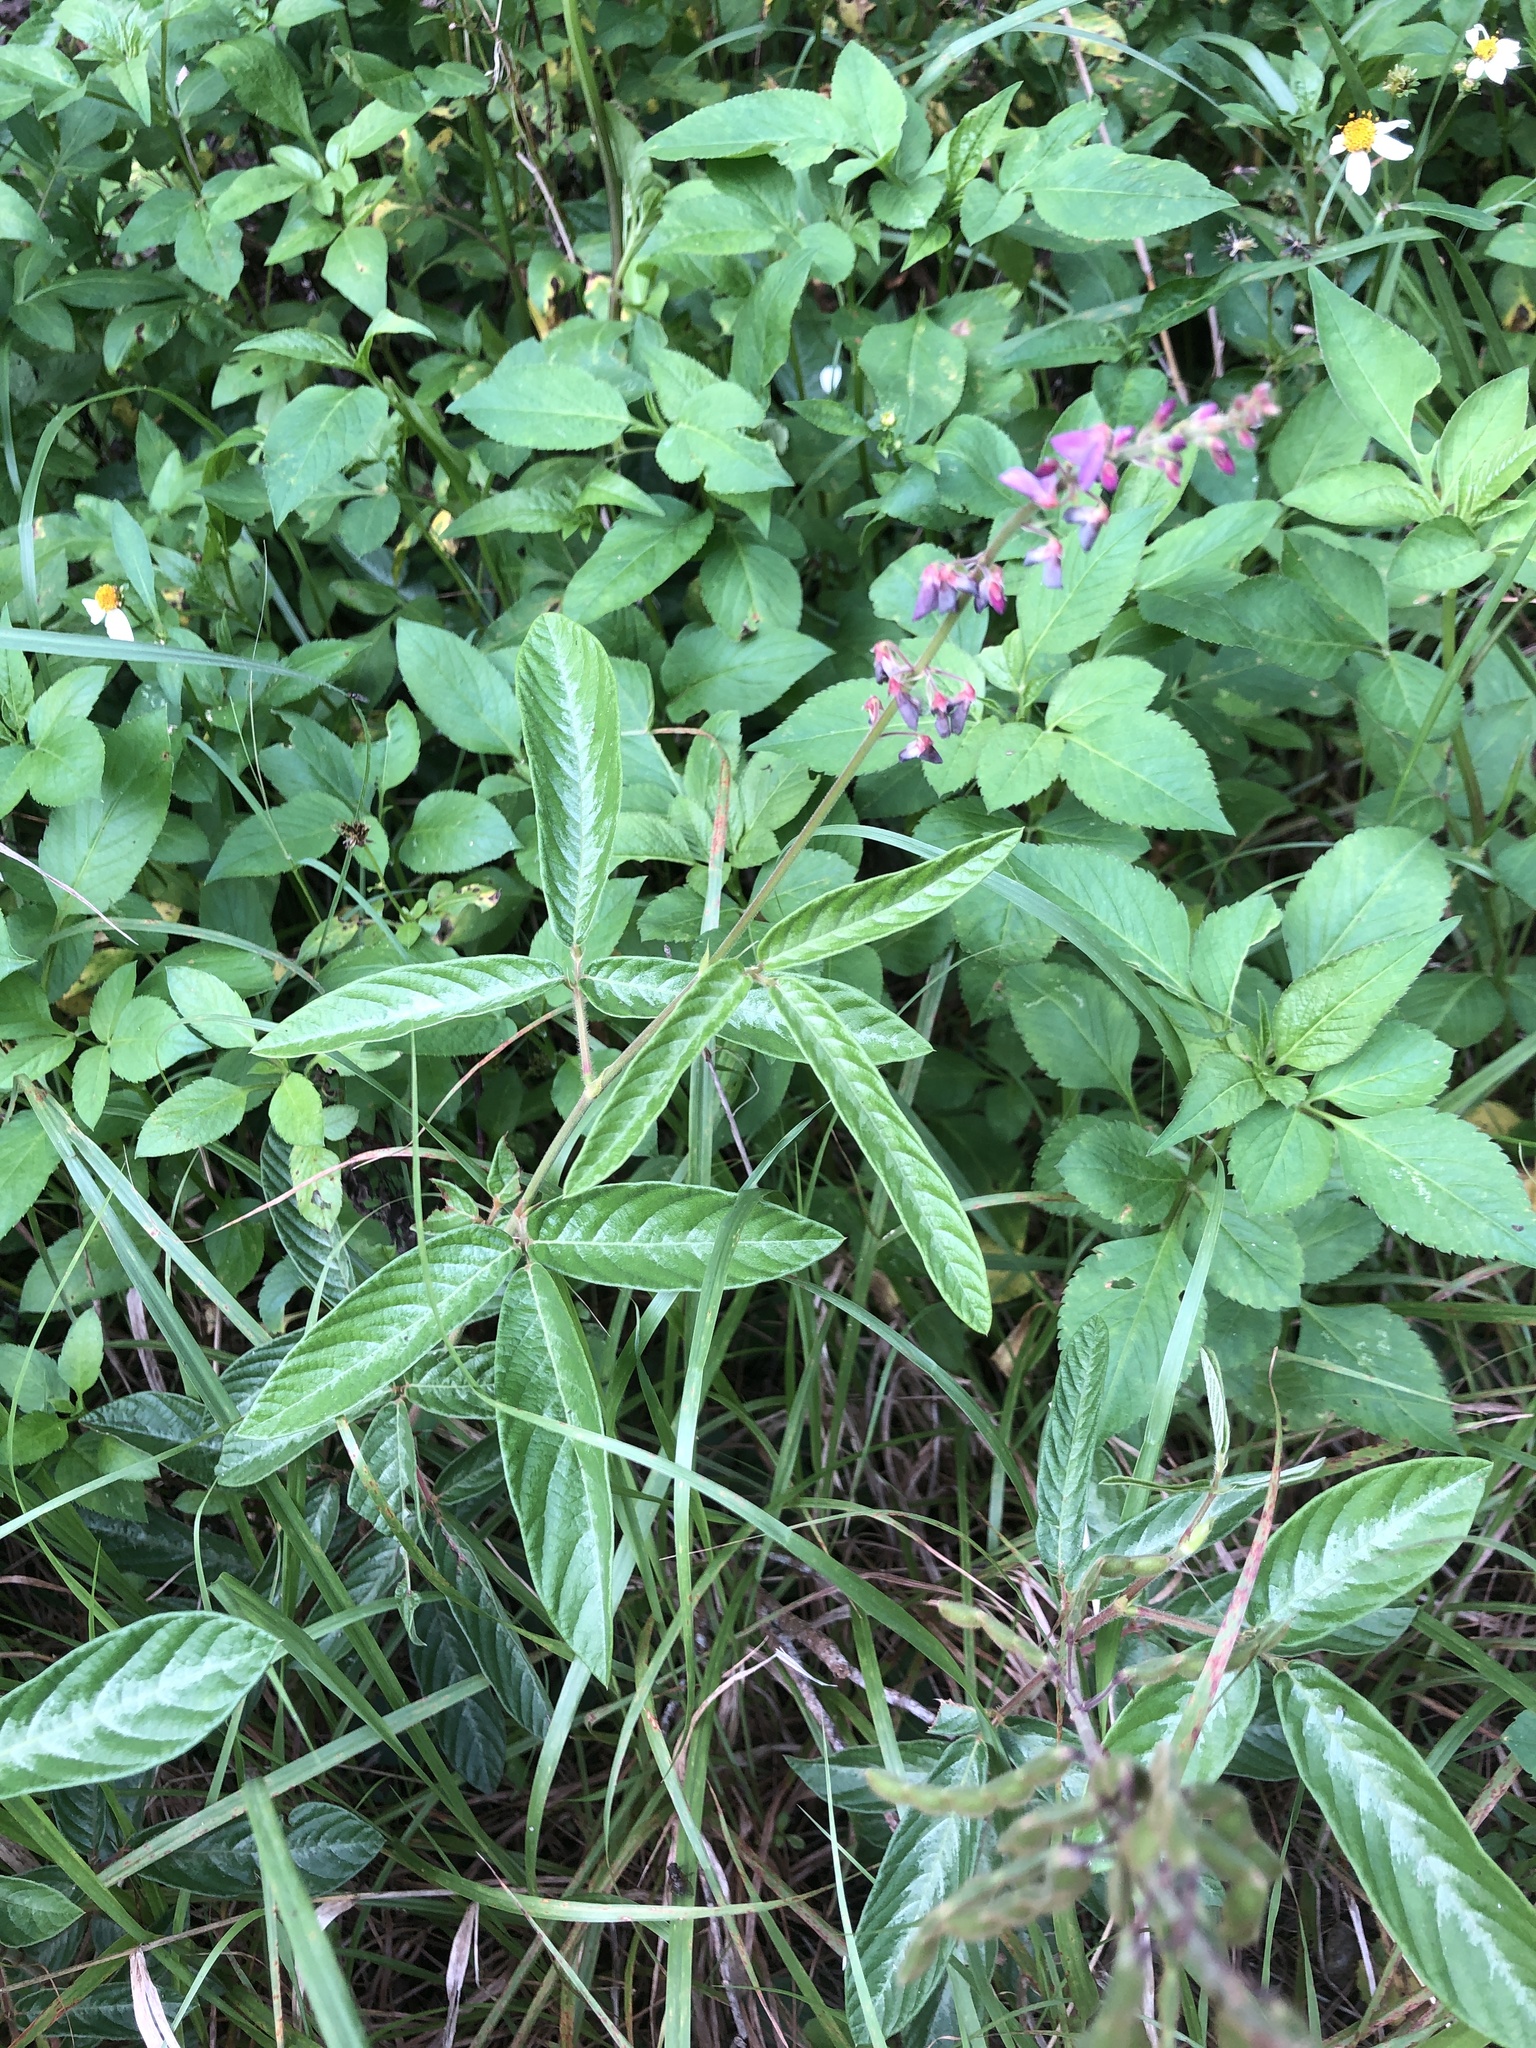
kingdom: Plantae
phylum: Tracheophyta
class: Magnoliopsida
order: Fabales
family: Fabaceae
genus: Desmodium
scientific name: Desmodium incanum
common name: Tickclover
